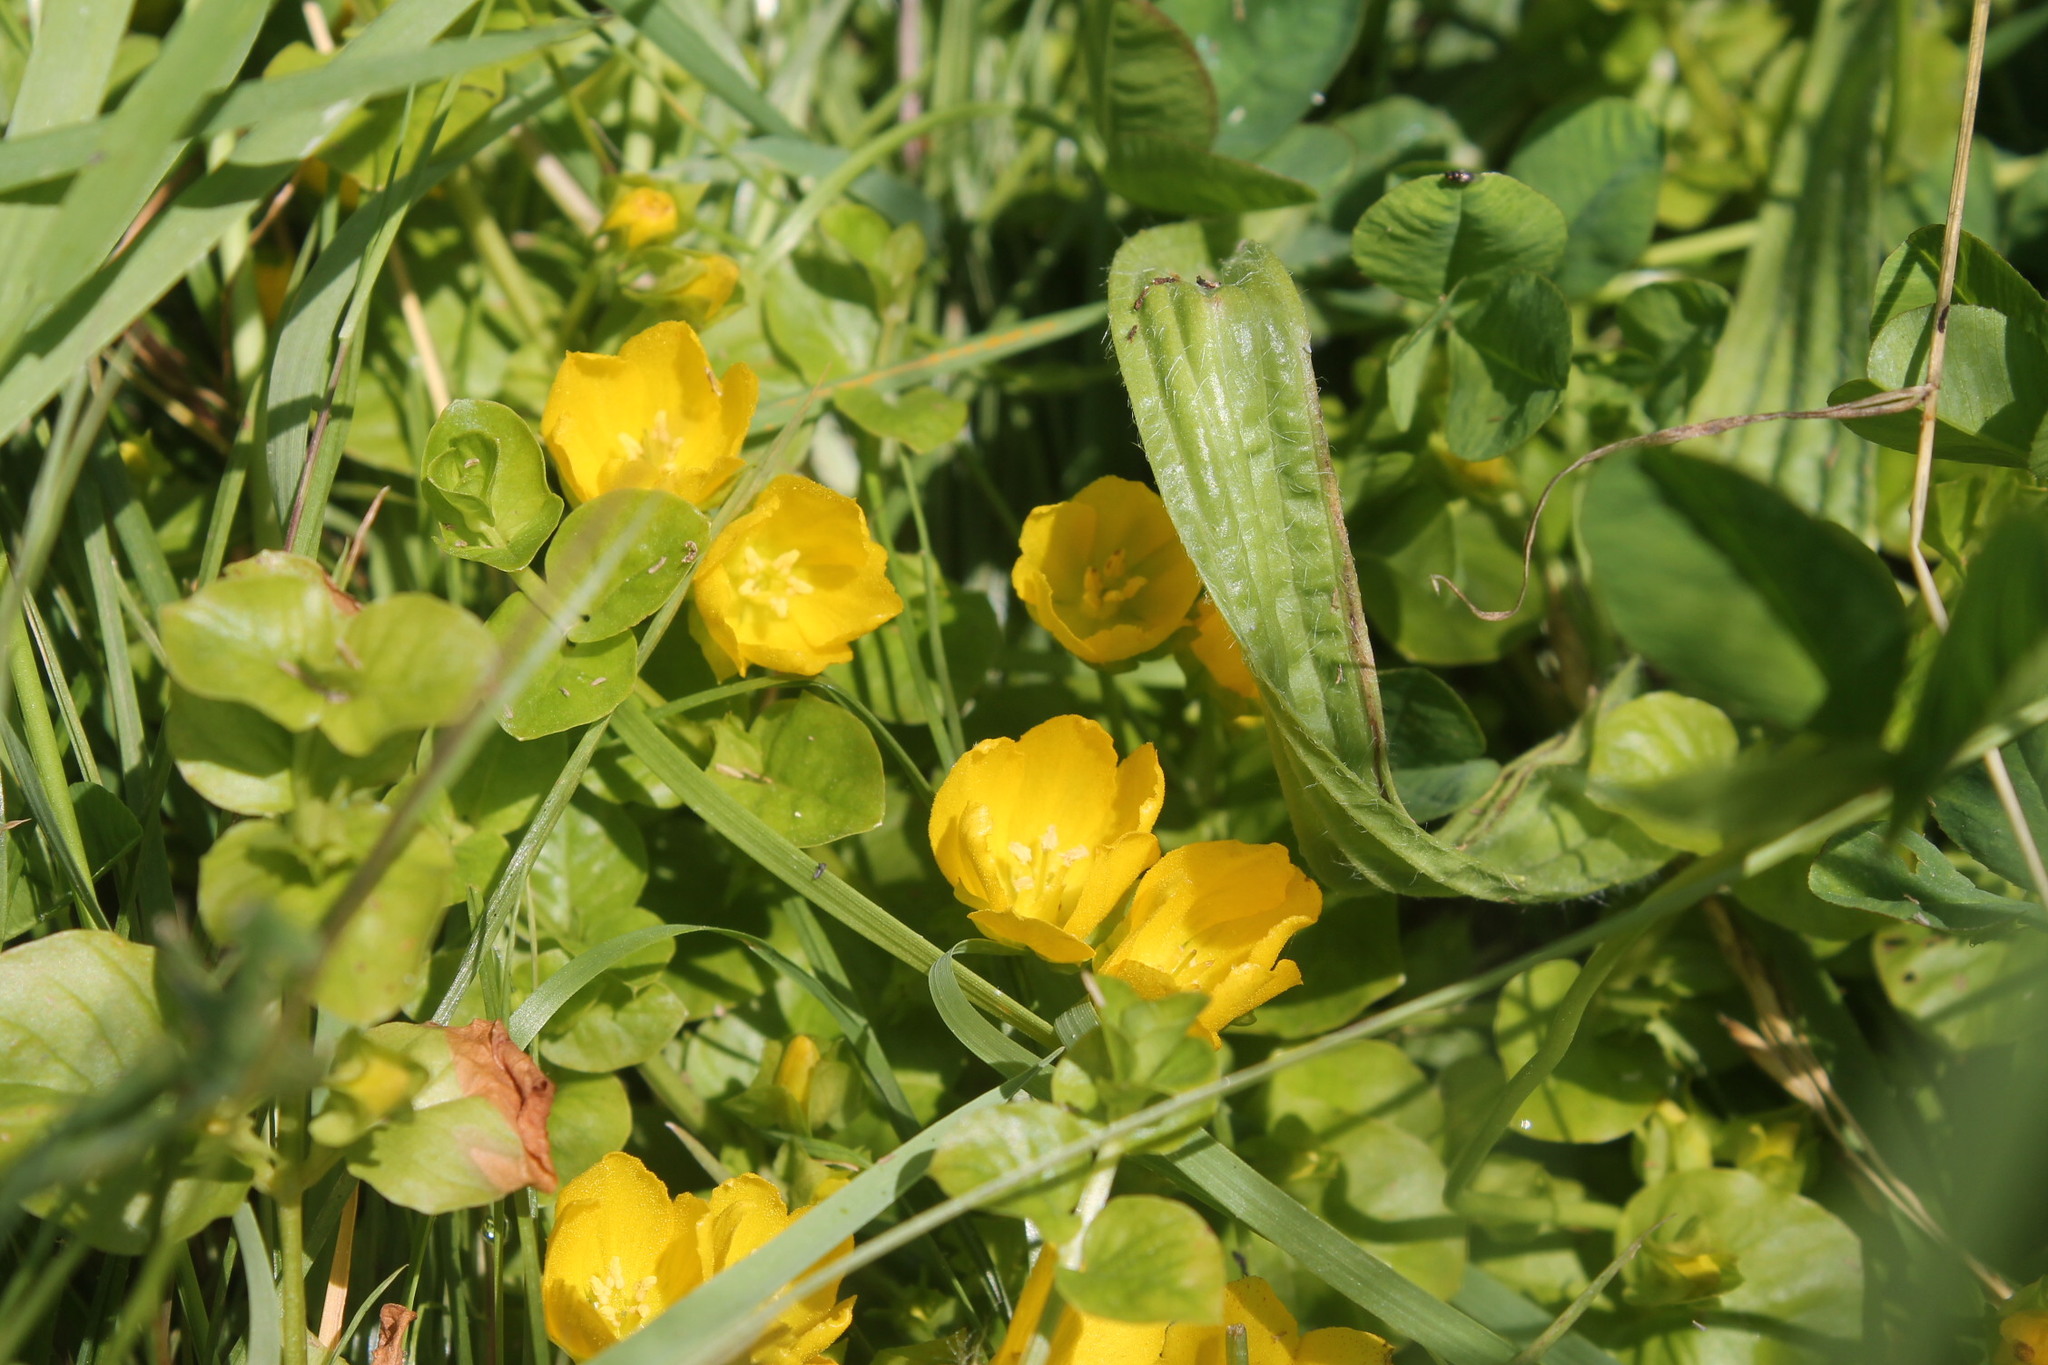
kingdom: Plantae
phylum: Tracheophyta
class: Magnoliopsida
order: Ericales
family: Primulaceae
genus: Lysimachia
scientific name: Lysimachia nummularia
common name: Moneywort
